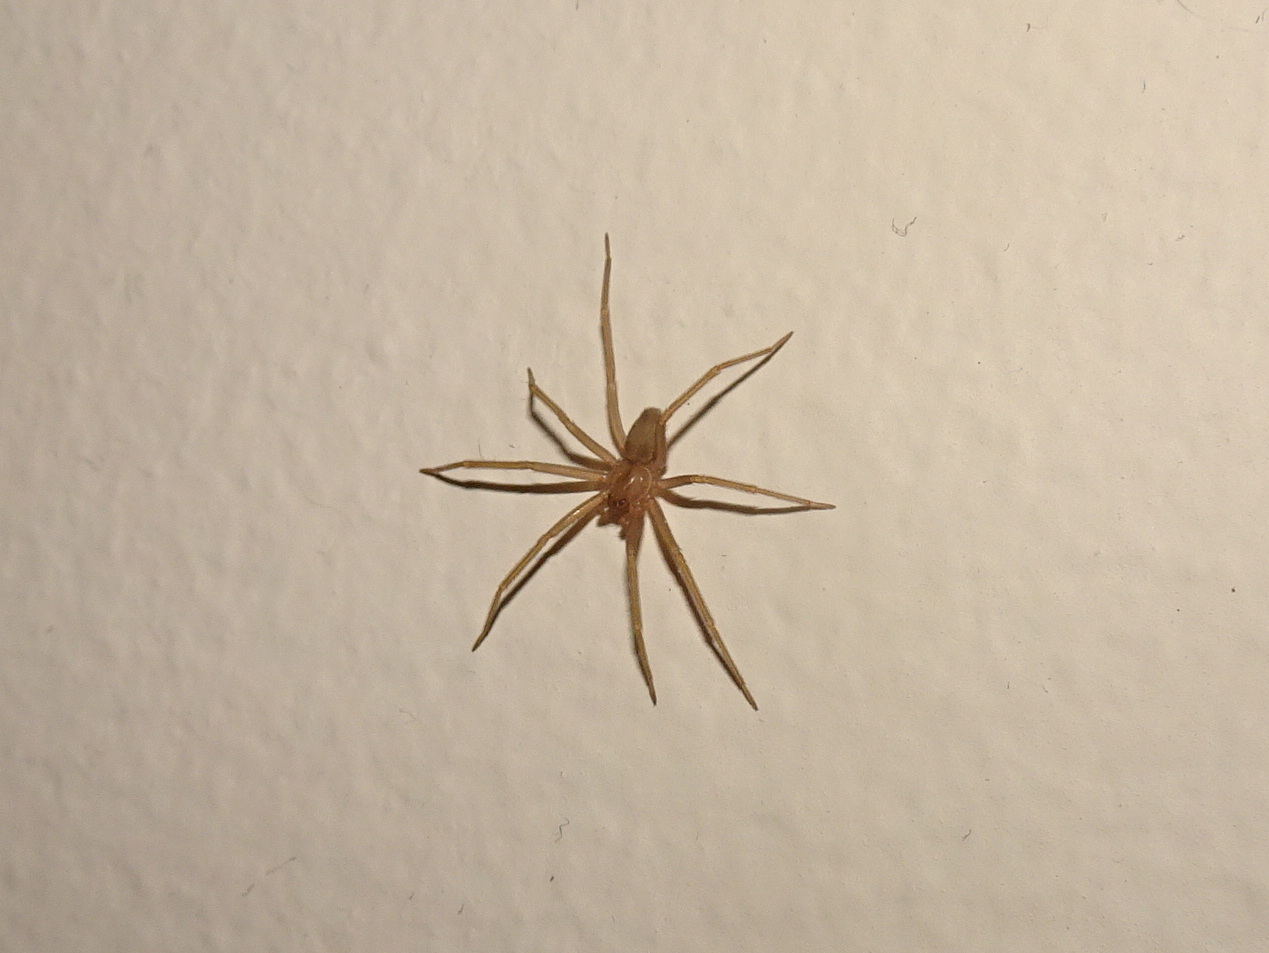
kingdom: Animalia
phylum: Arthropoda
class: Arachnida
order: Araneae
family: Sicariidae
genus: Loxosceles
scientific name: Loxosceles reclusa
